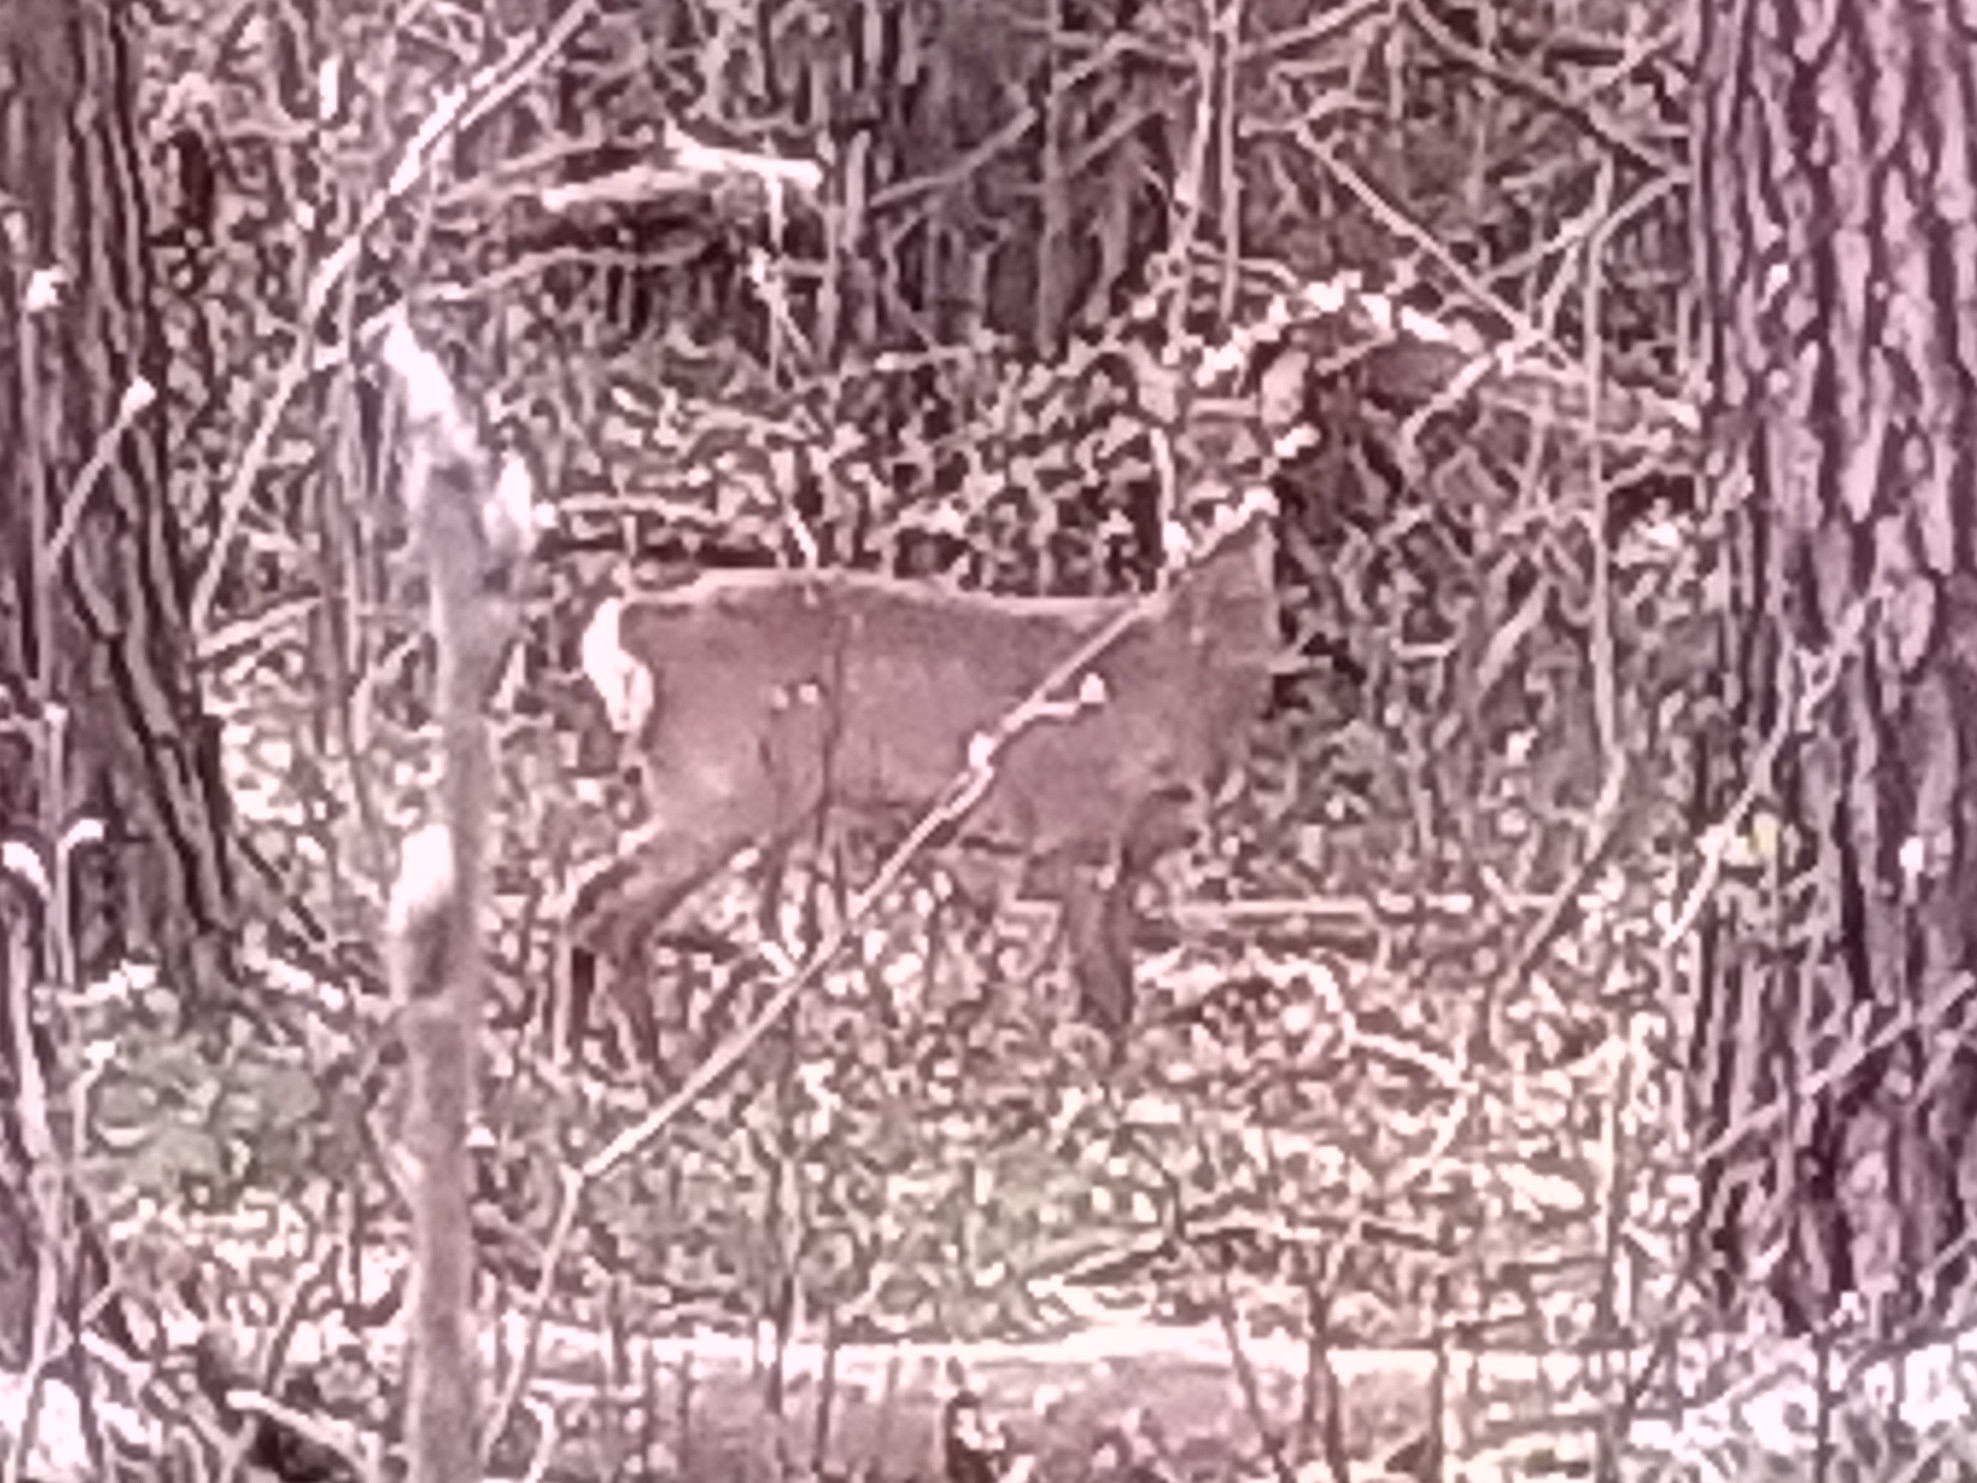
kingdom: Animalia
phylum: Chordata
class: Mammalia
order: Artiodactyla
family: Cervidae
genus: Capreolus
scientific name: Capreolus capreolus
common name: Western roe deer
